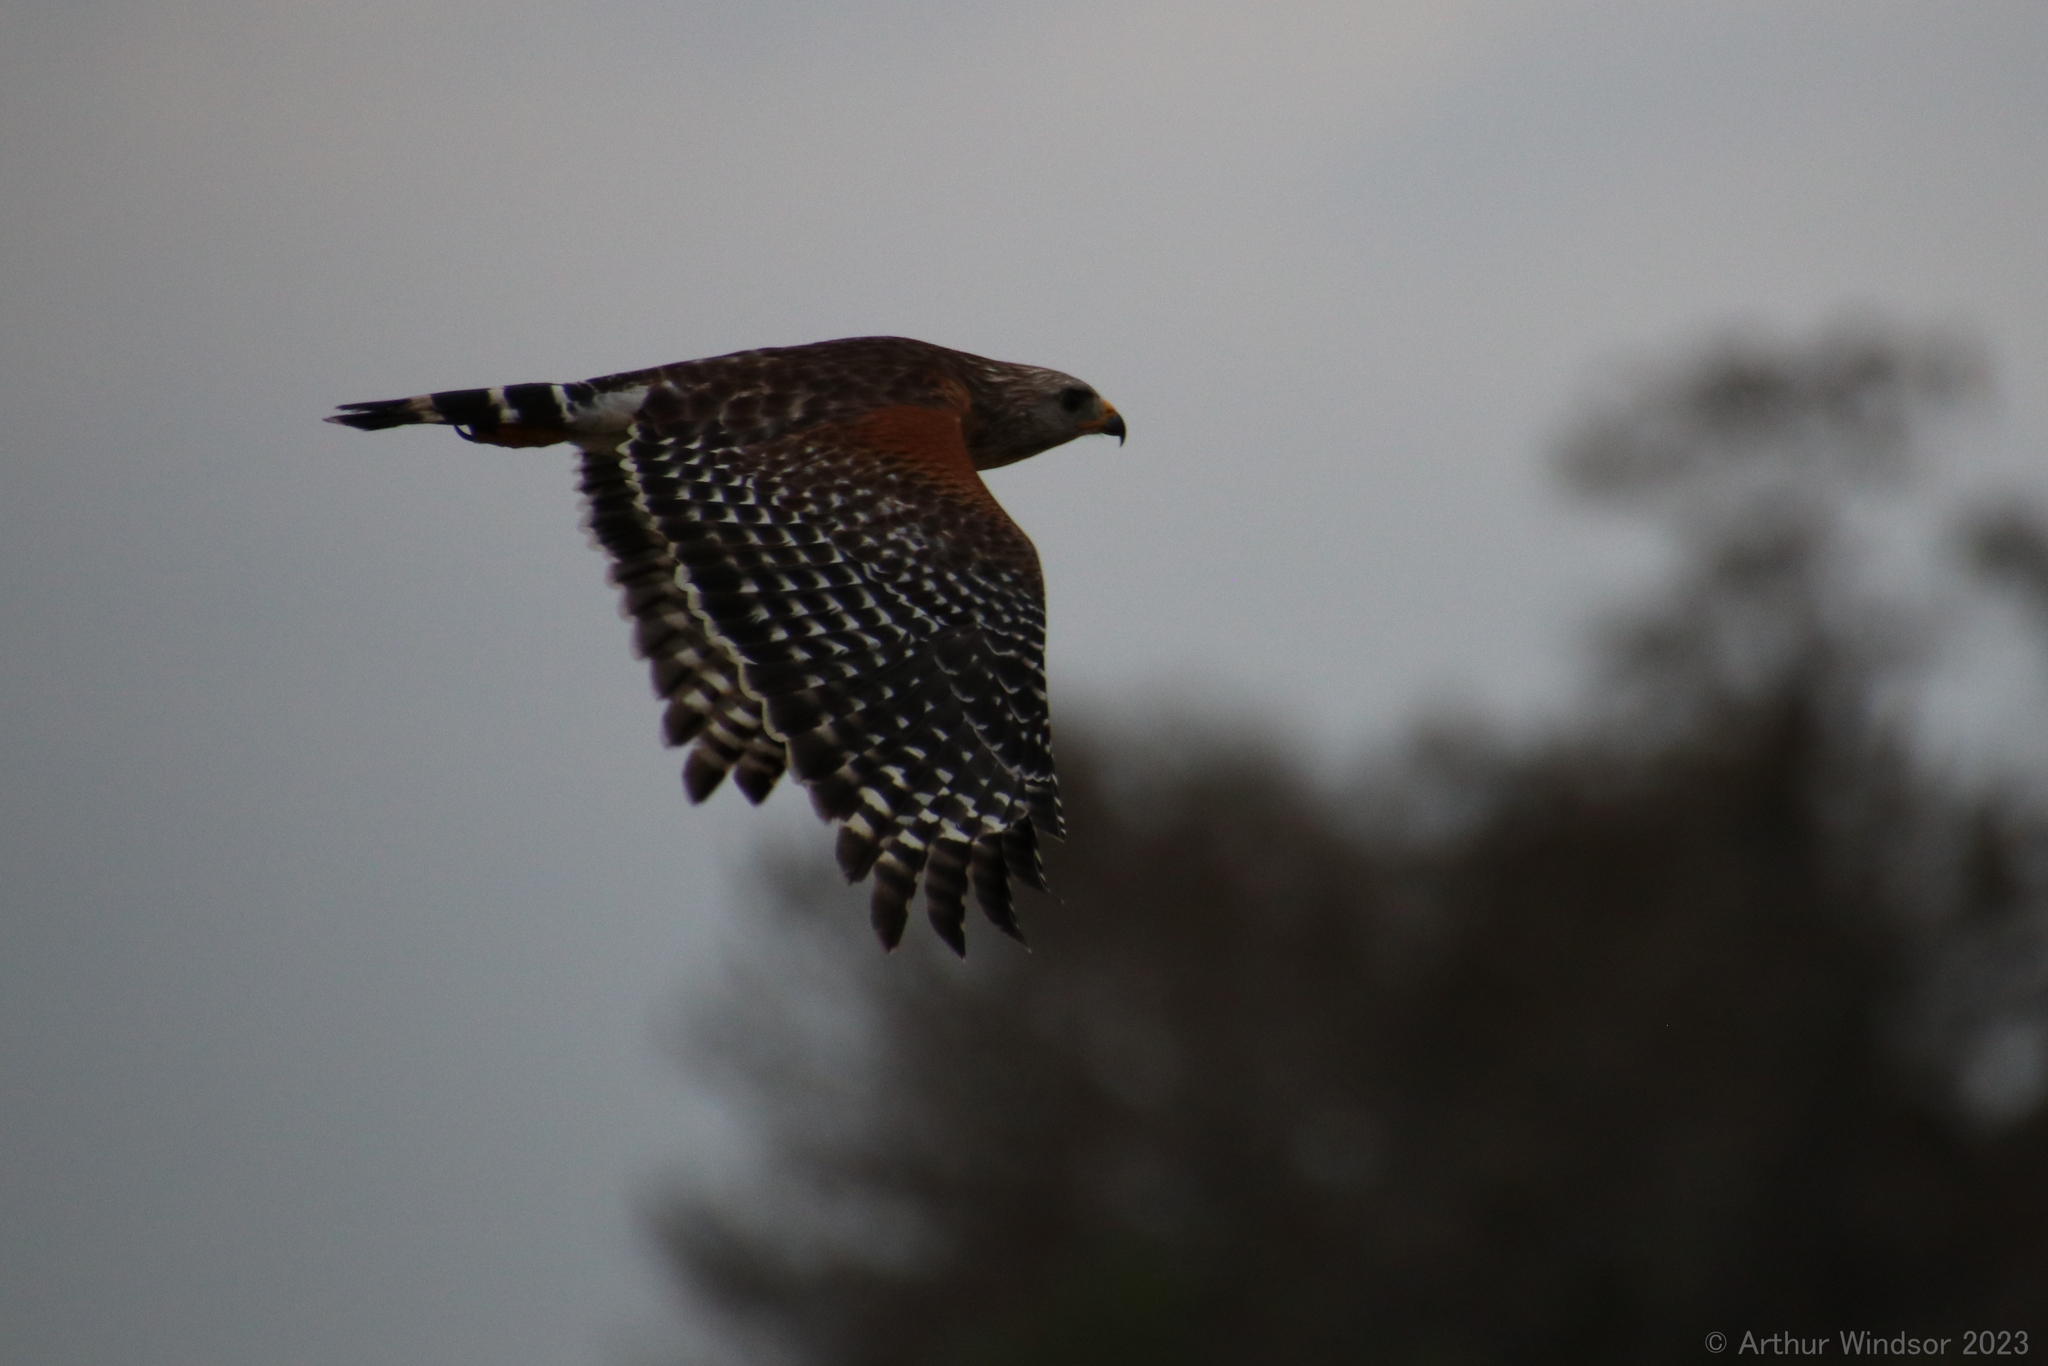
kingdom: Animalia
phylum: Chordata
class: Aves
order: Accipitriformes
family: Accipitridae
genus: Buteo
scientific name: Buteo lineatus
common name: Red-shouldered hawk
